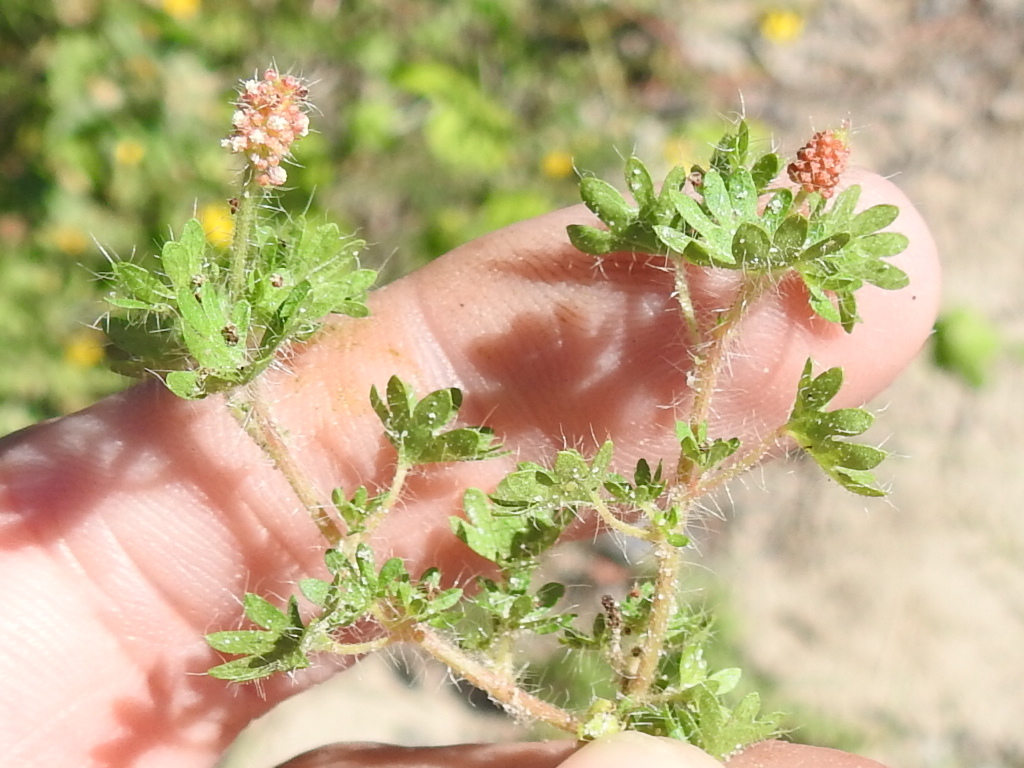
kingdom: Plantae
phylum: Tracheophyta
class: Magnoliopsida
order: Malpighiales
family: Euphorbiaceae
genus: Acalypha
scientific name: Acalypha radians
